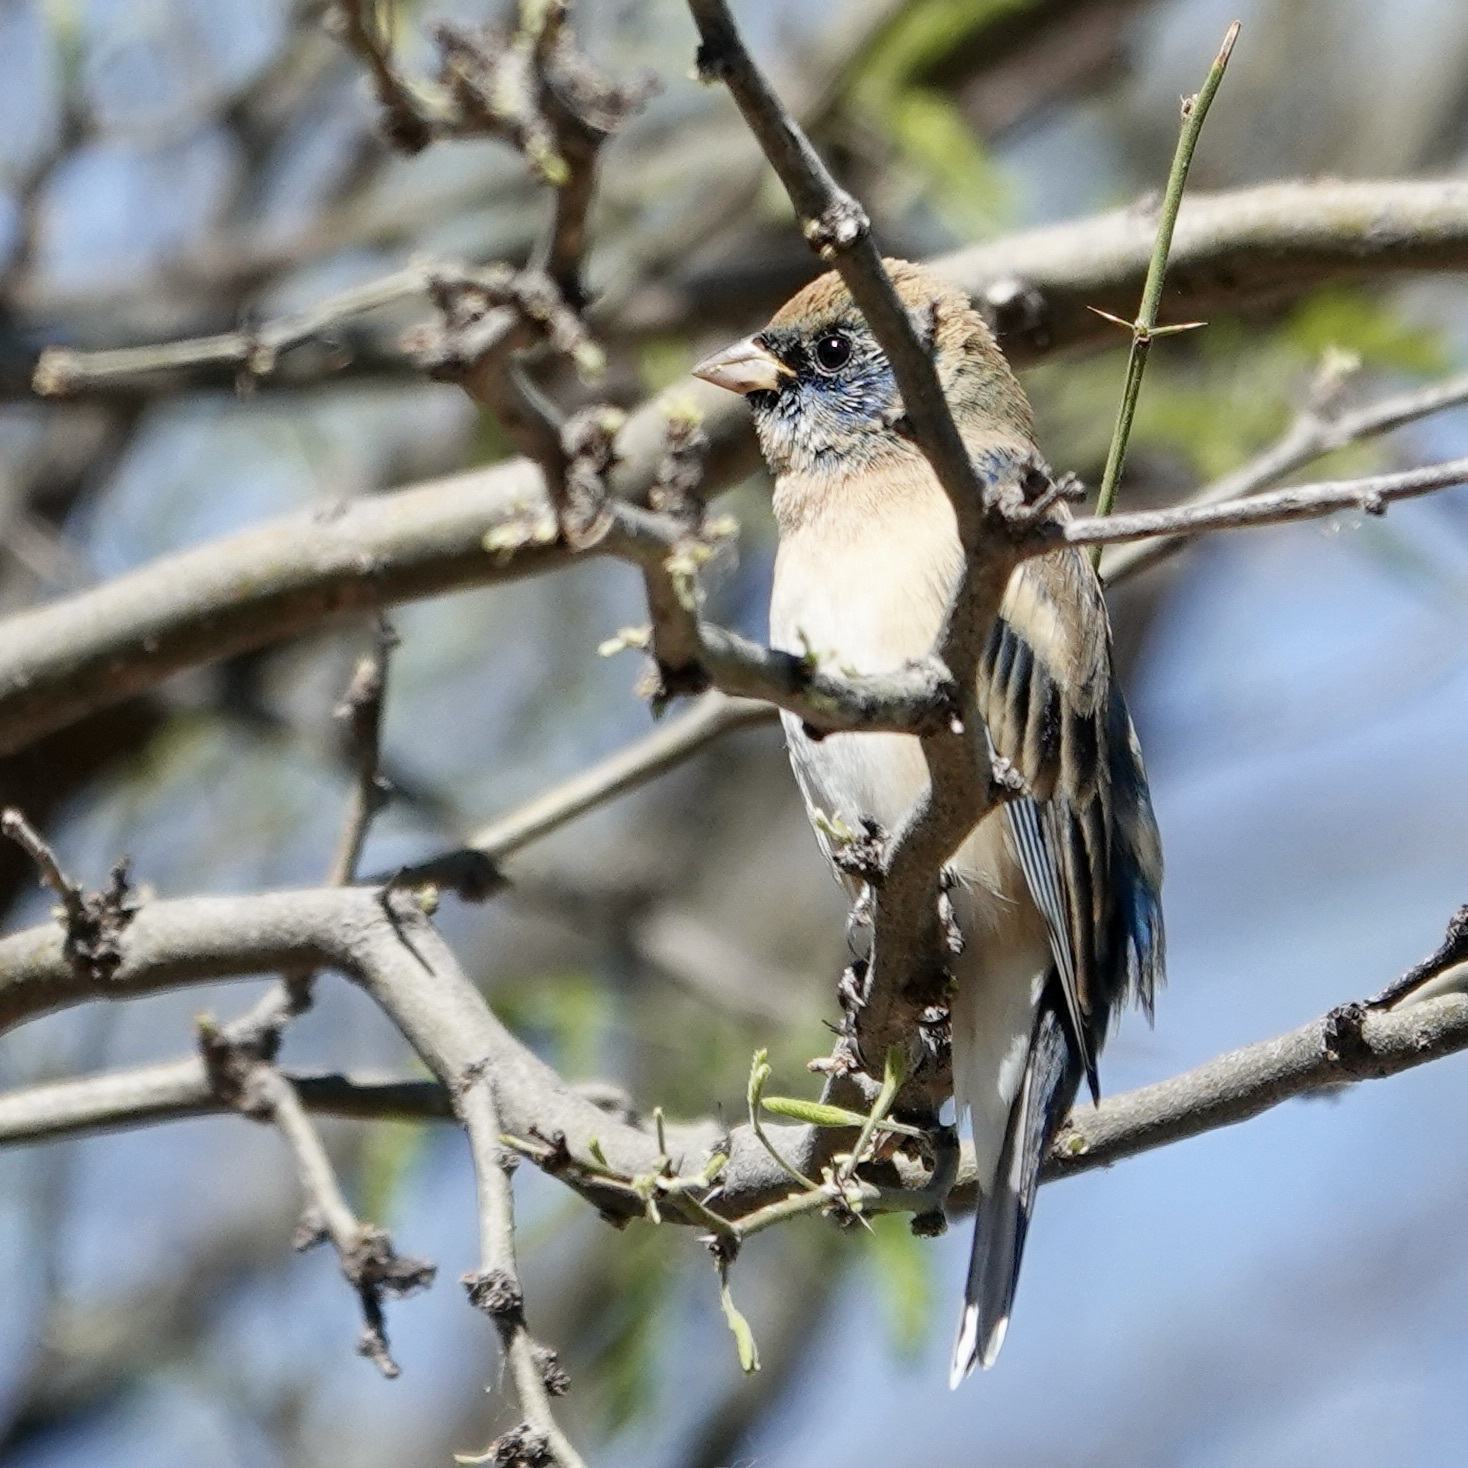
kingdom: Animalia
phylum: Chordata
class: Aves
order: Passeriformes
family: Cardinalidae
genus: Passerina
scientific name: Passerina amoena
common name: Lazuli bunting
